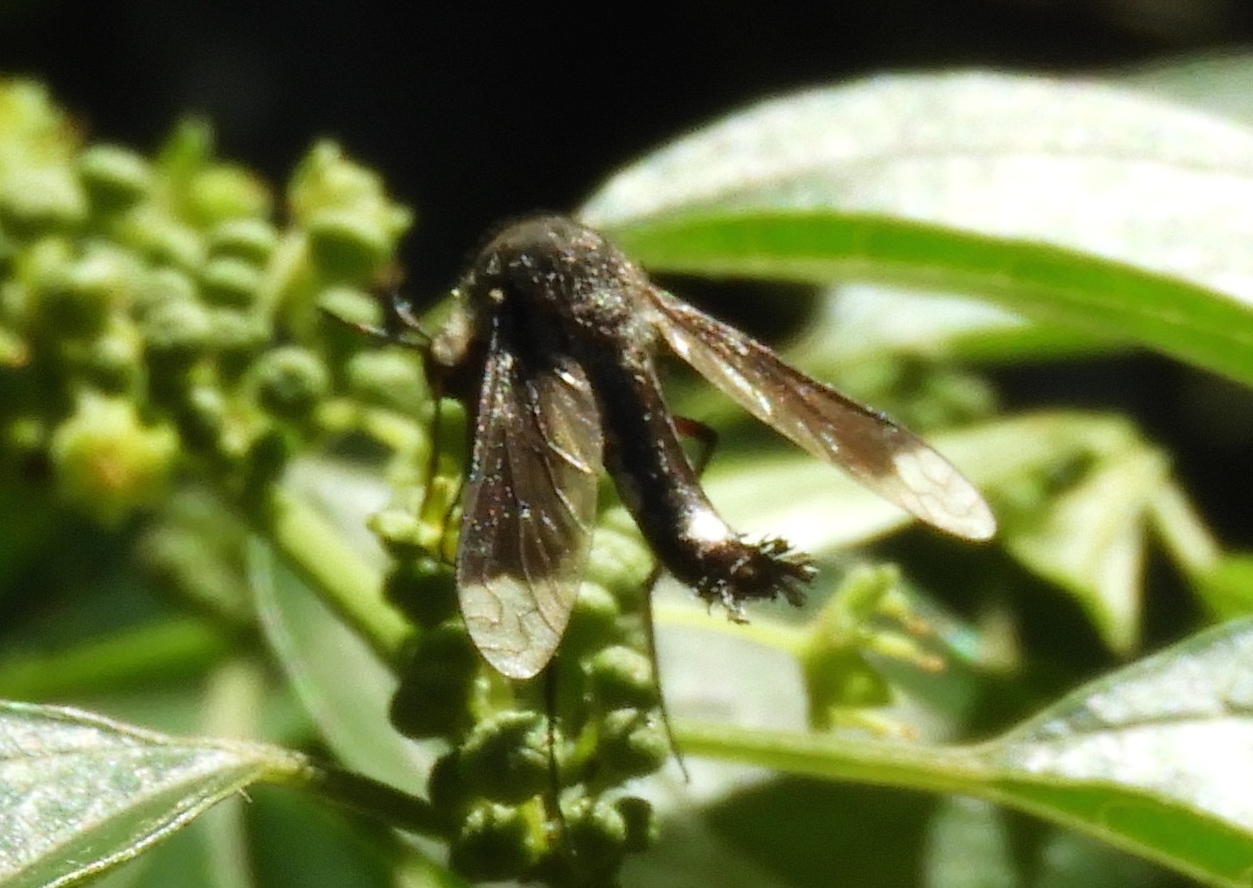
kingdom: Animalia
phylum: Arthropoda
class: Insecta
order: Diptera
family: Bombyliidae
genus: Lepidophora
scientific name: Lepidophora vetusta
